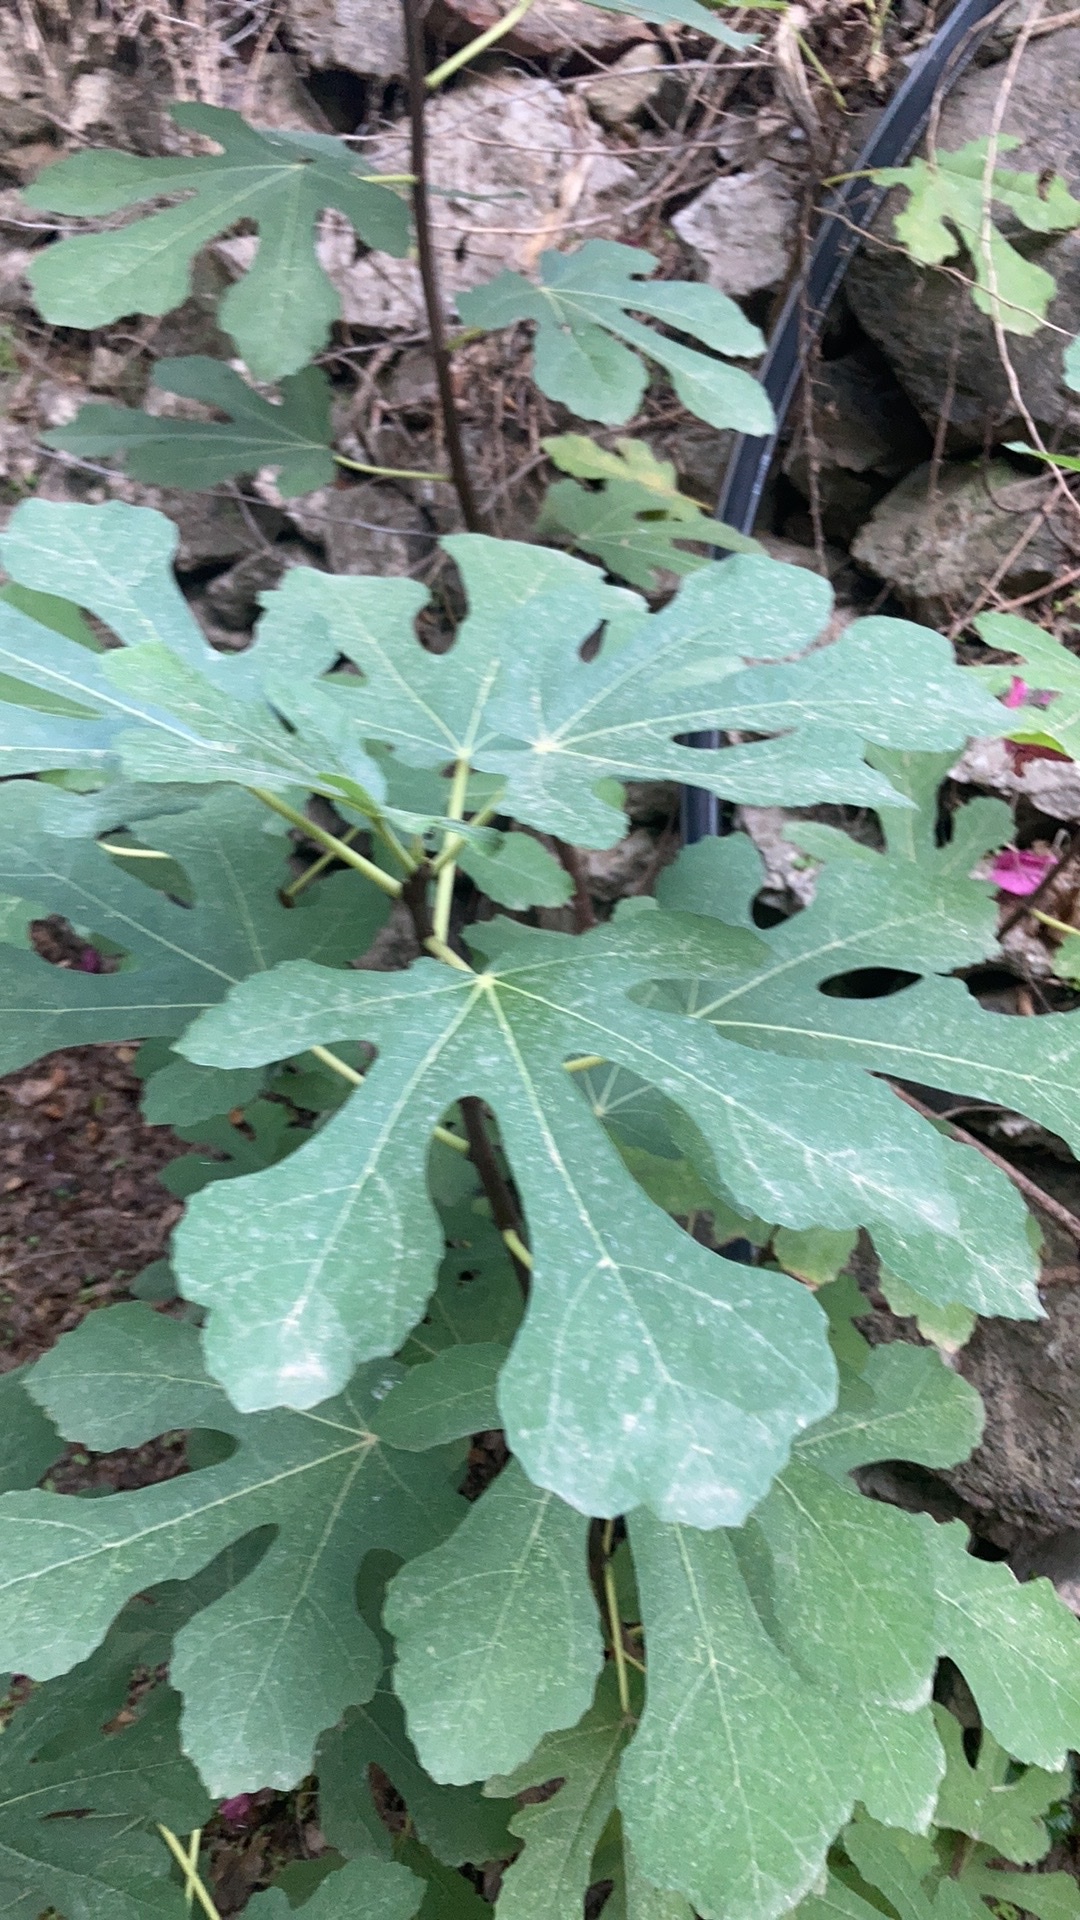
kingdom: Plantae
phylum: Tracheophyta
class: Magnoliopsida
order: Rosales
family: Moraceae
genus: Ficus
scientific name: Ficus carica
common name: Fig
